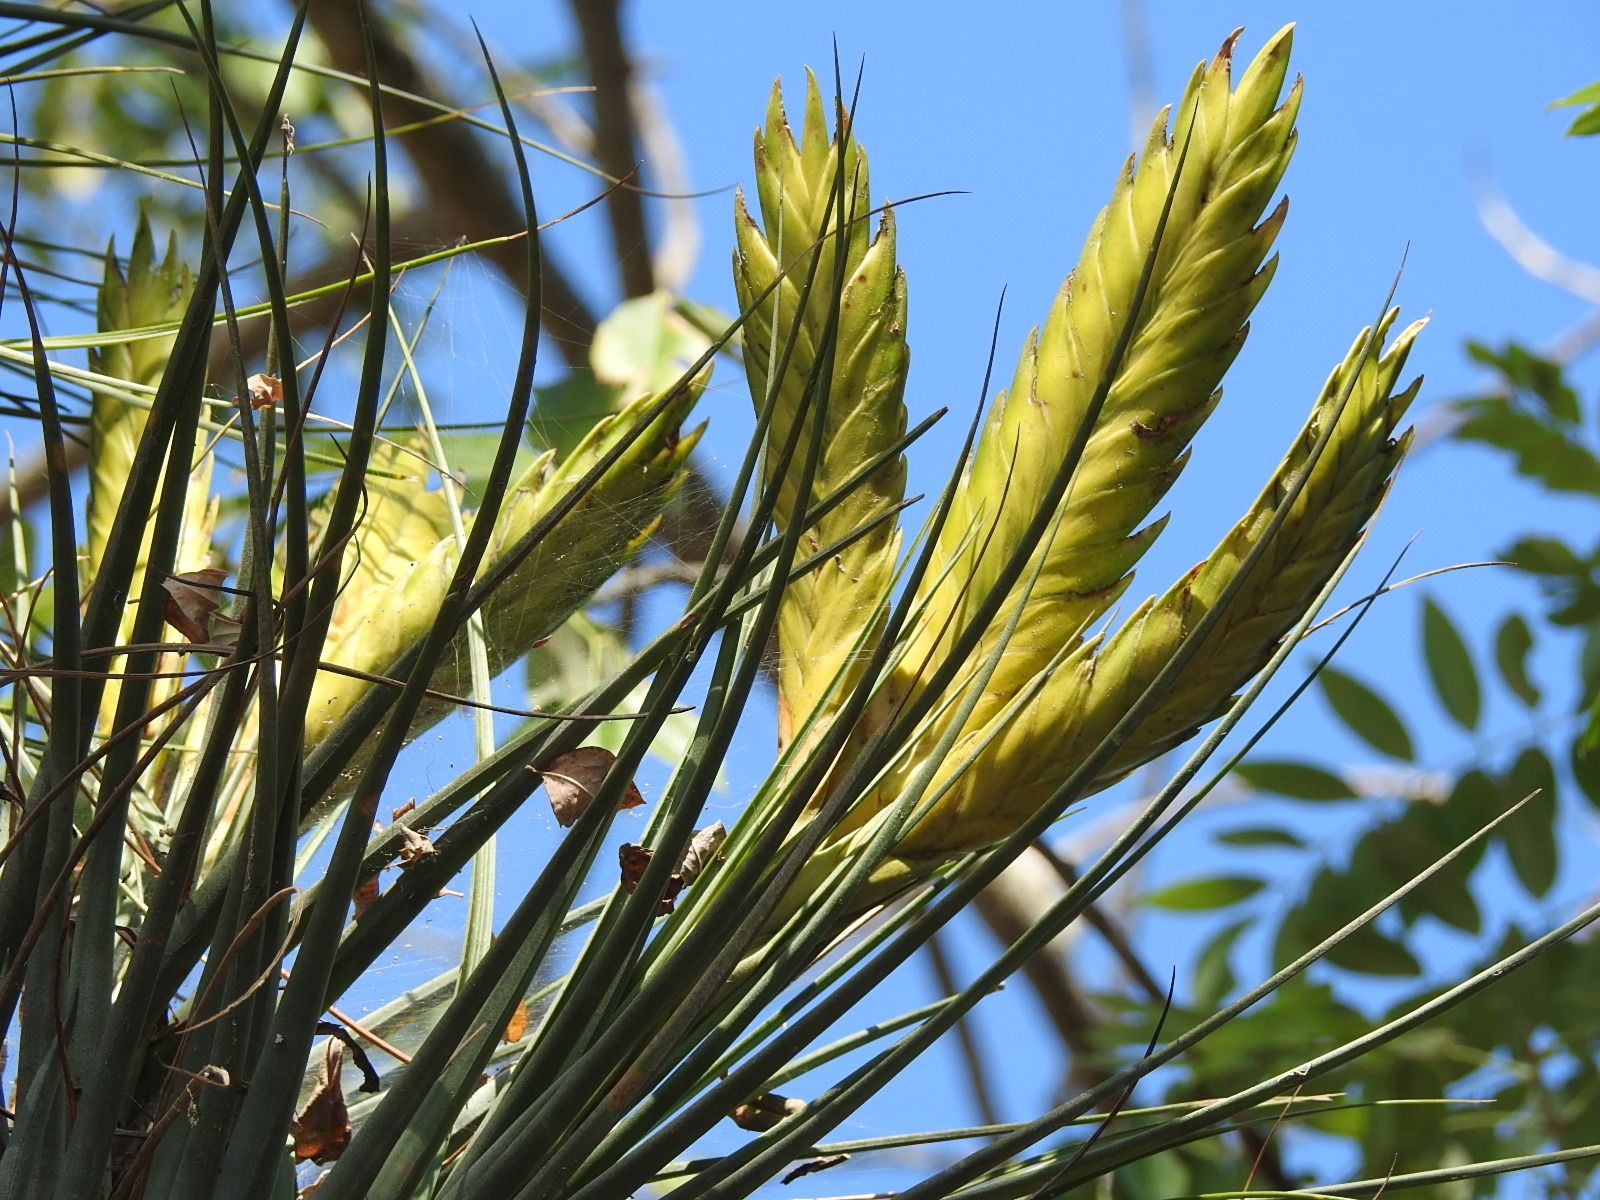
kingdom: Plantae
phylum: Tracheophyta
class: Liliopsida
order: Poales
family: Bromeliaceae
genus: Tillandsia
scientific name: Tillandsia flavobracteata
